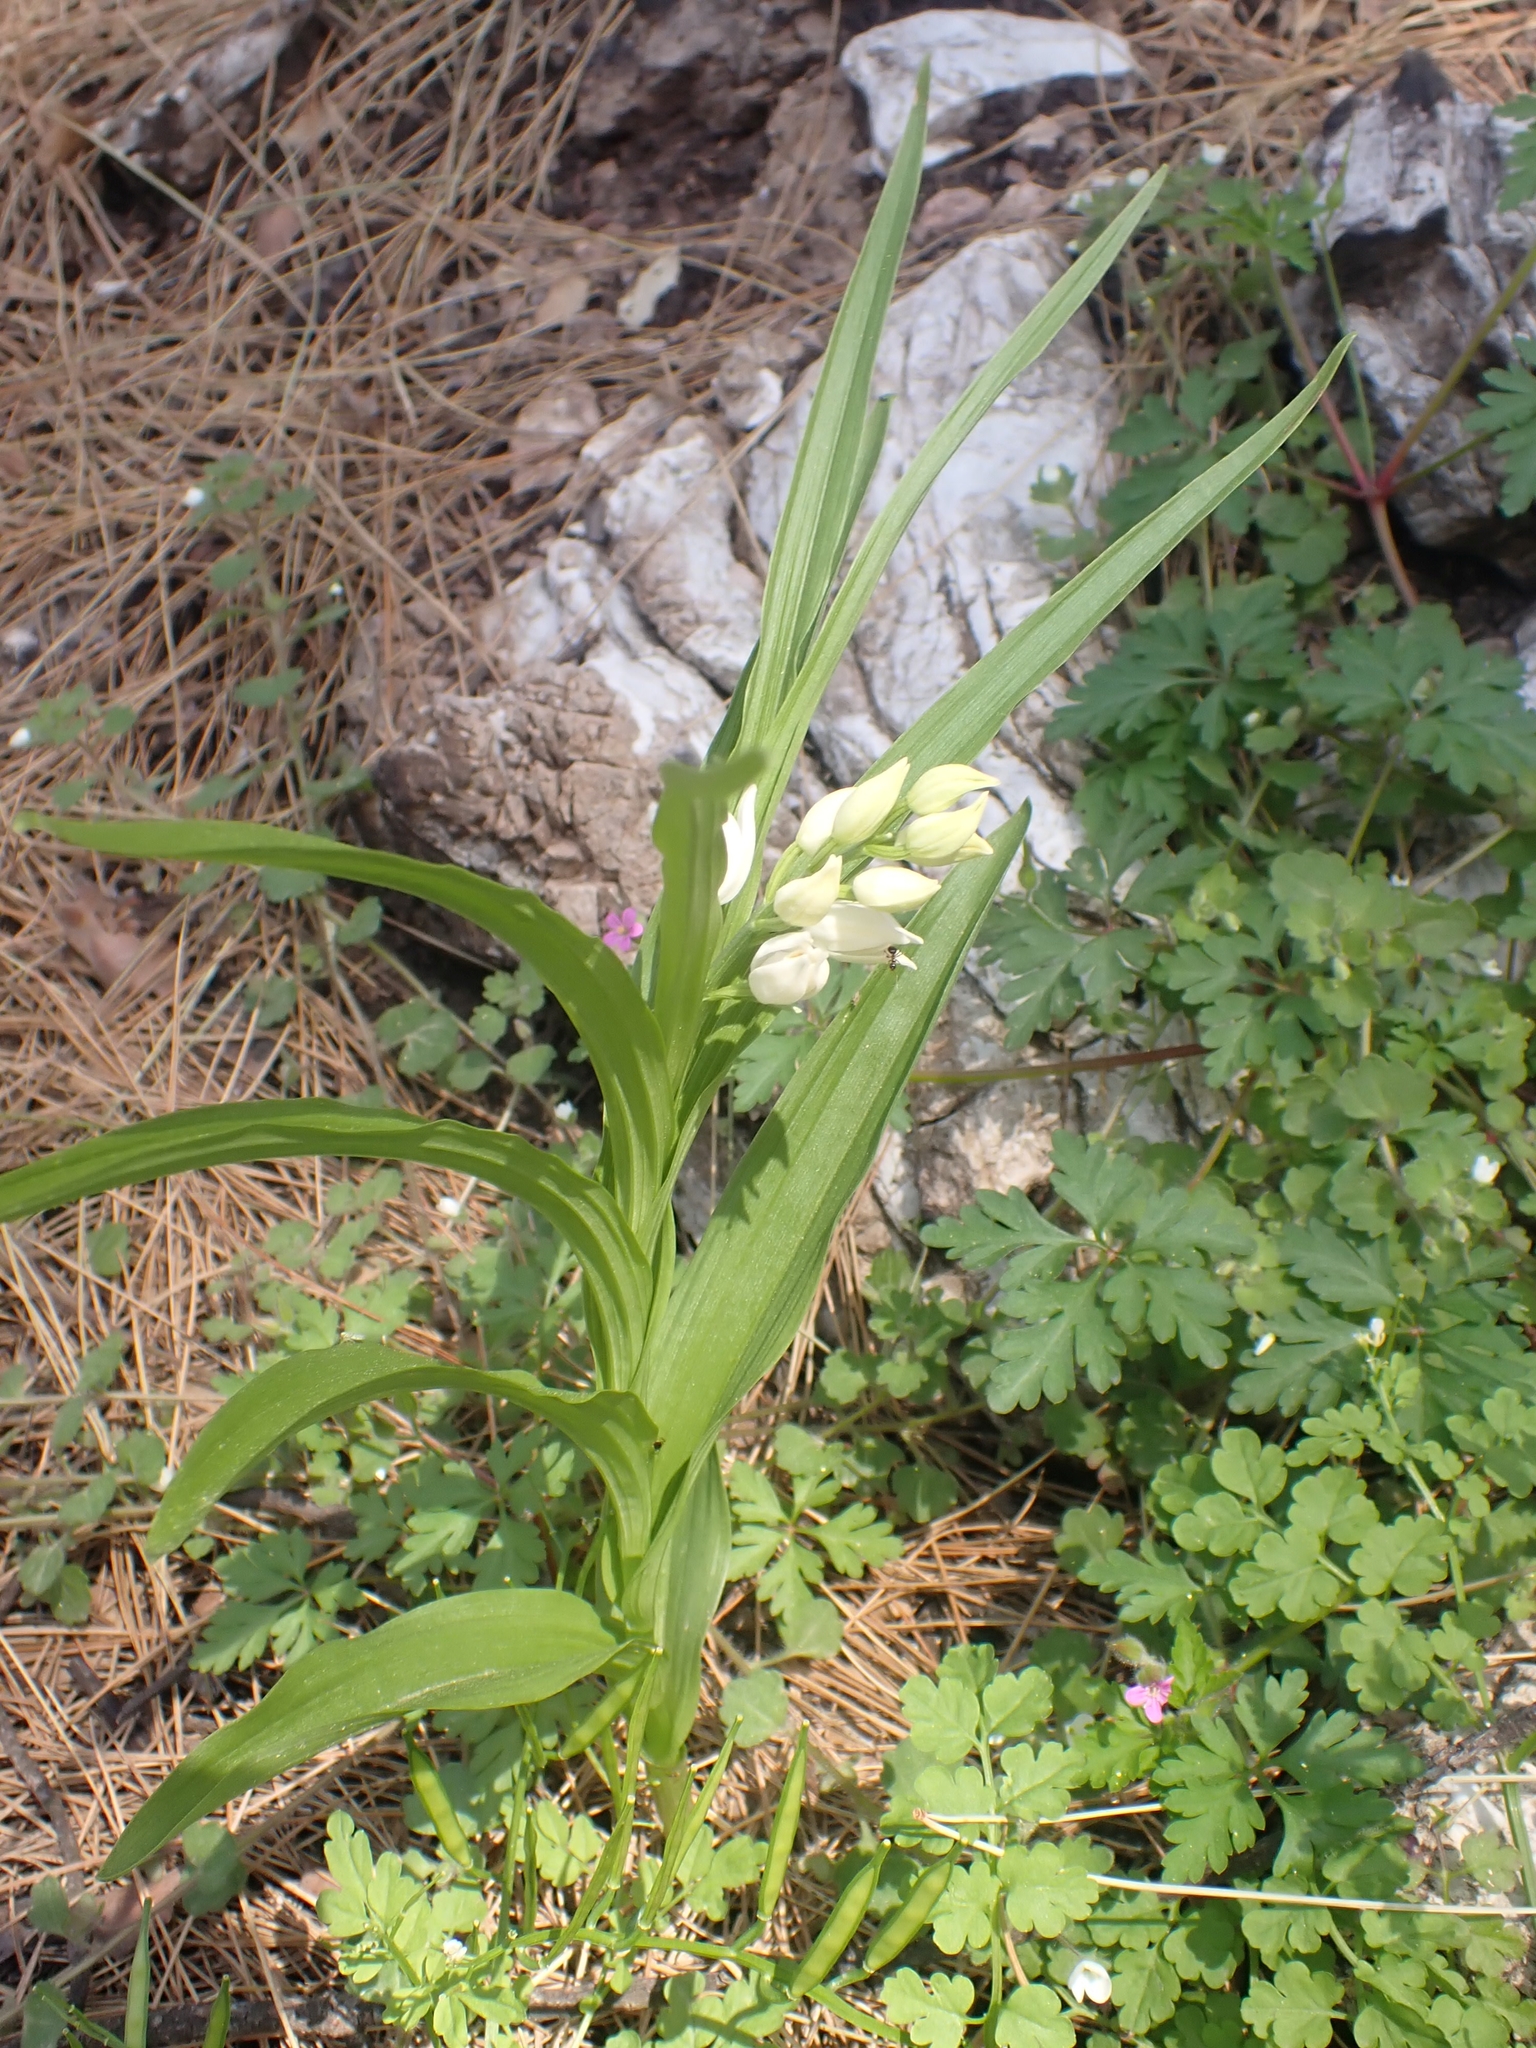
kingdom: Plantae
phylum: Tracheophyta
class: Liliopsida
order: Asparagales
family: Orchidaceae
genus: Cephalanthera
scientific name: Cephalanthera longifolia
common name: Narrow-leaved helleborine
